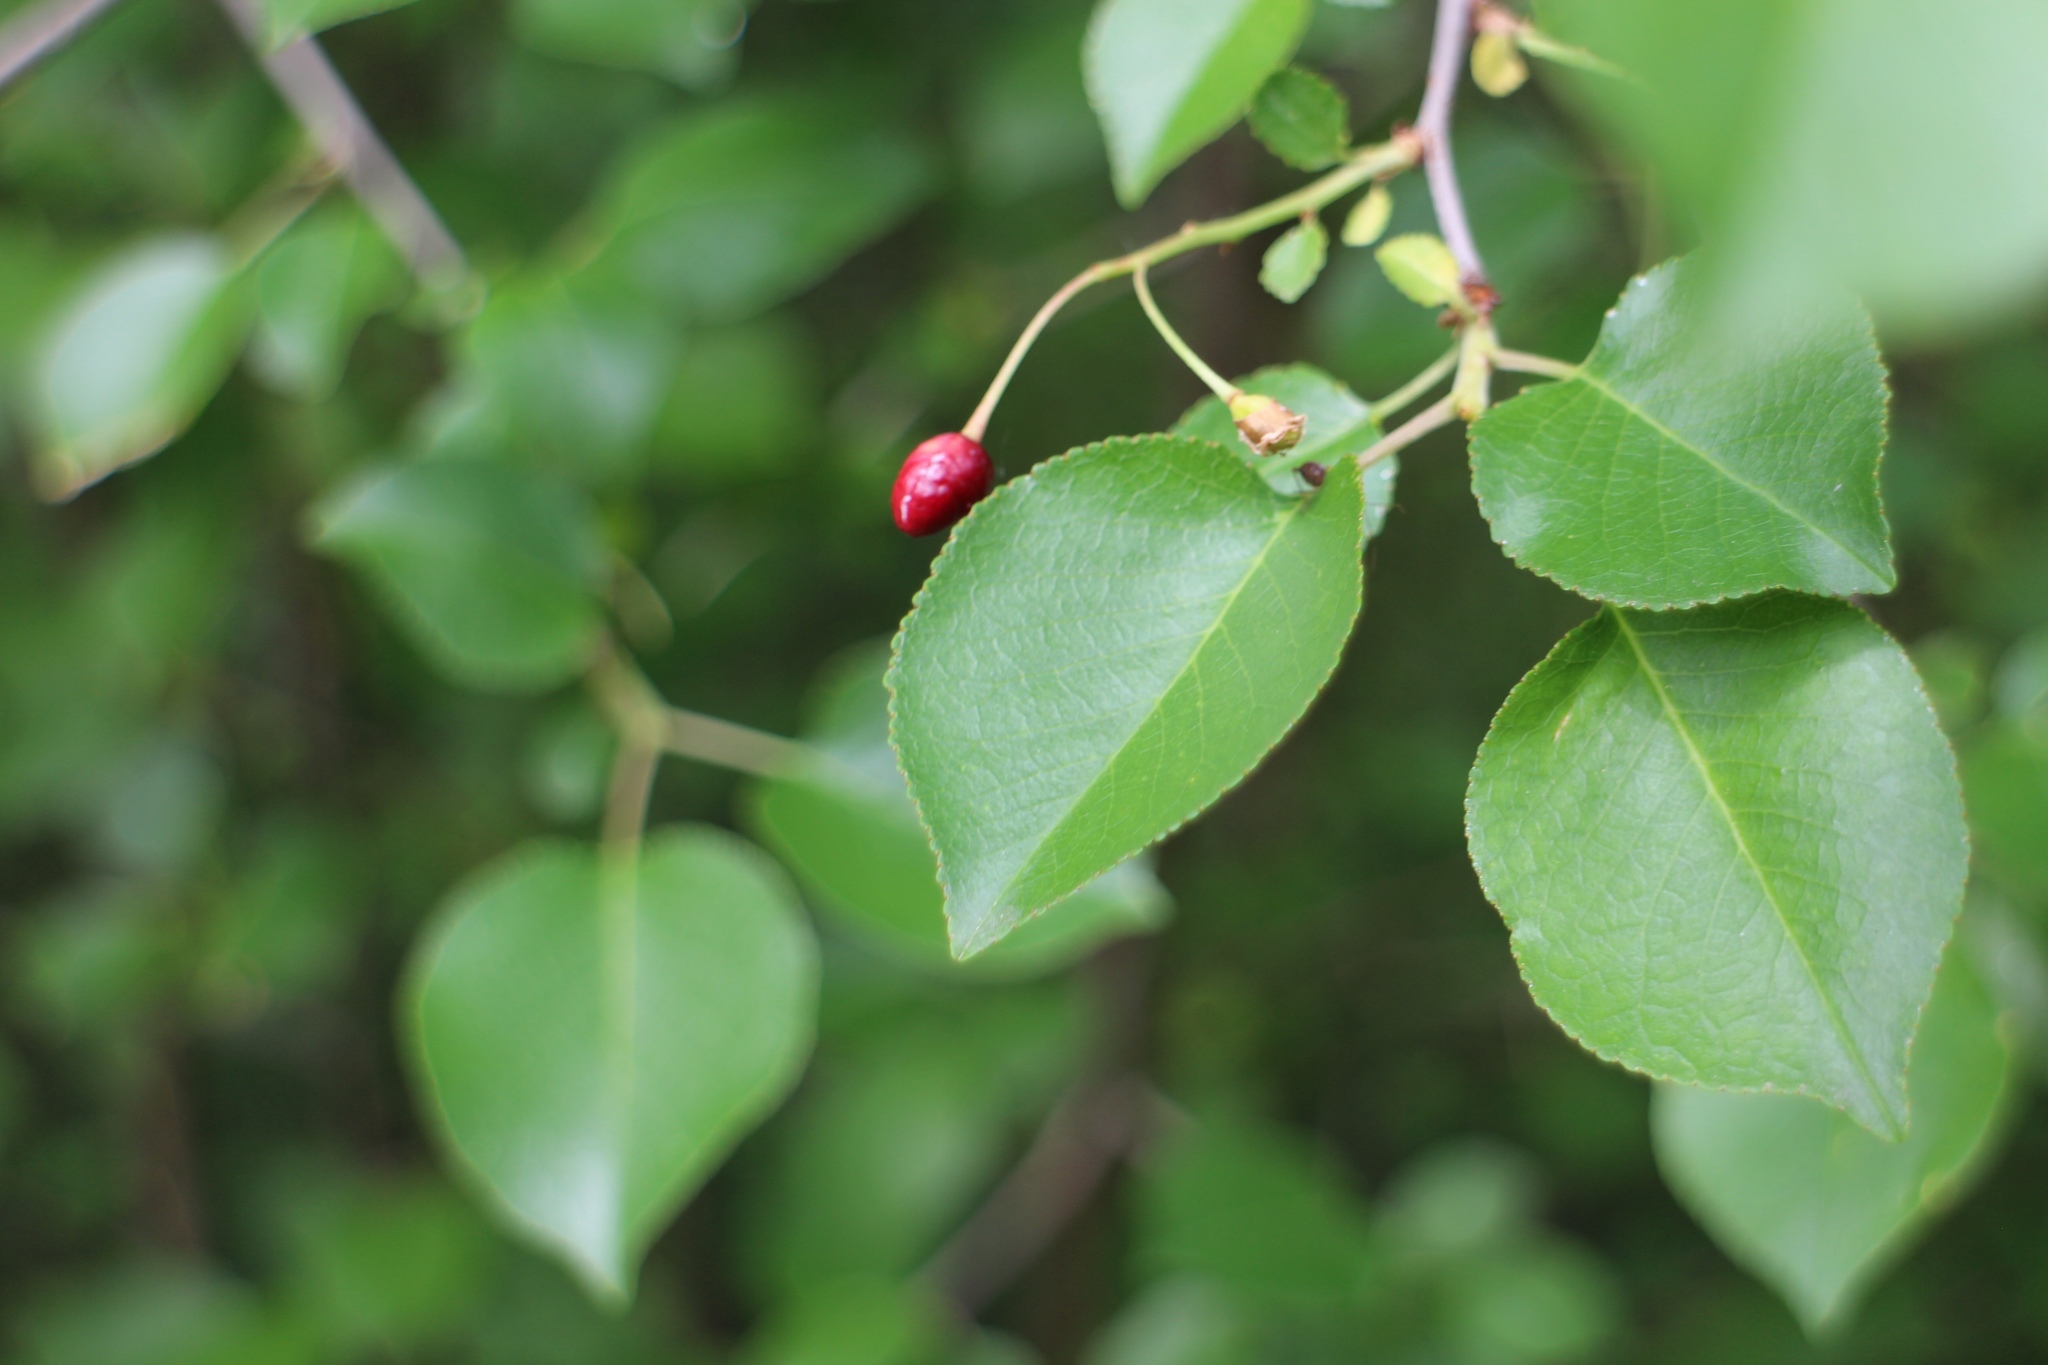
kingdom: Plantae
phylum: Tracheophyta
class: Magnoliopsida
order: Rosales
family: Rosaceae
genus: Prunus
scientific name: Prunus mahaleb
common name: Mahaleb cherry
